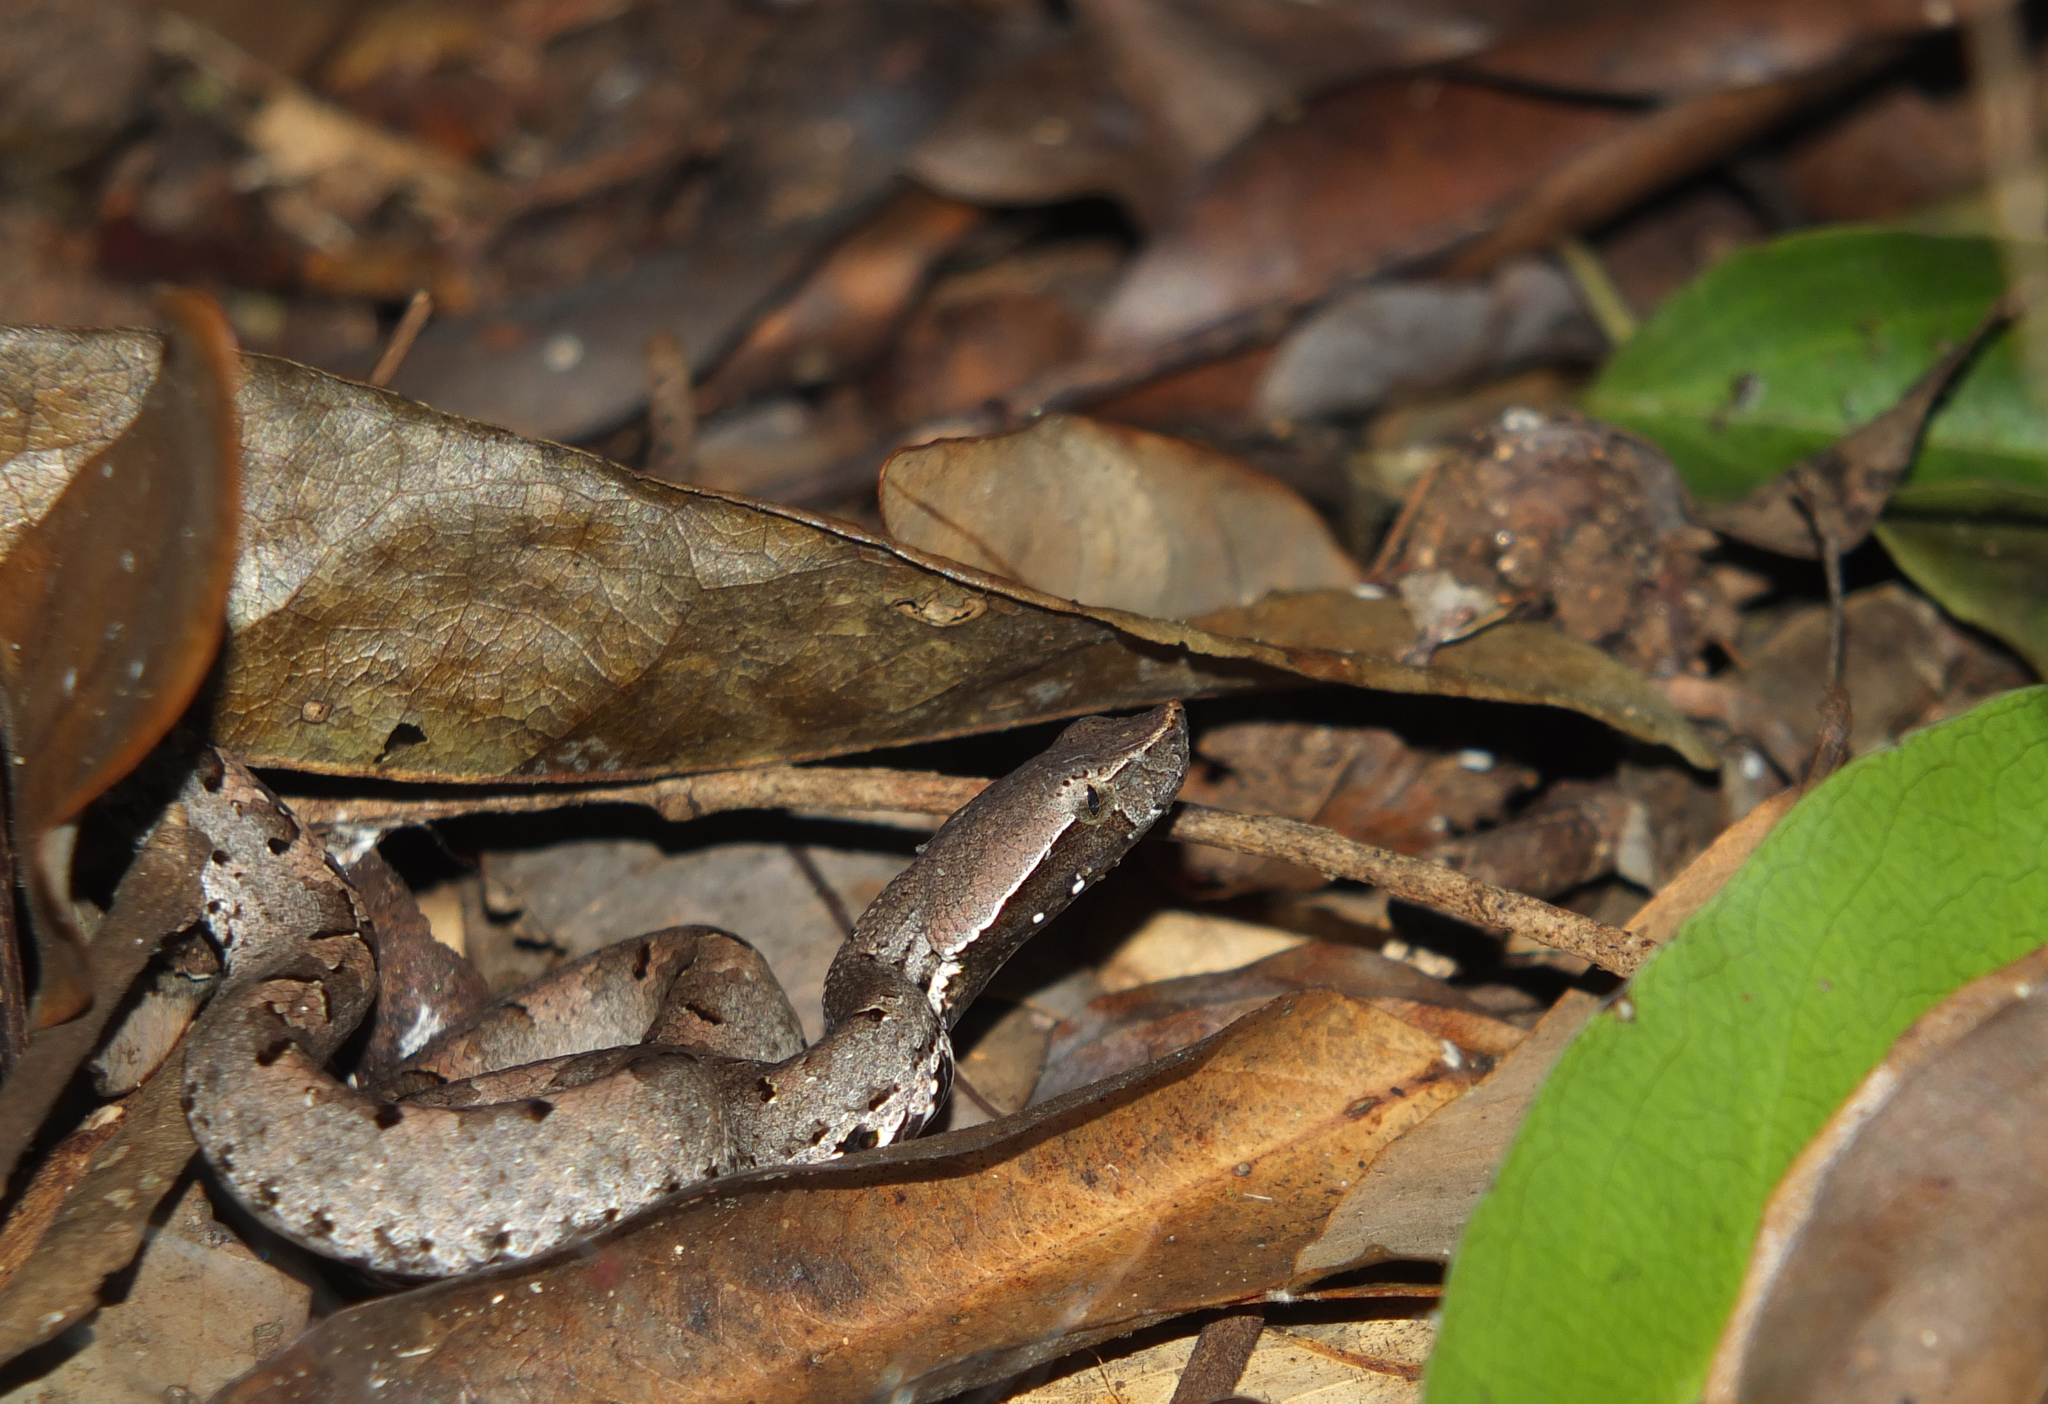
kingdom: Animalia
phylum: Chordata
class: Squamata
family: Viperidae
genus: Hypnale
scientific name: Hypnale hypnale
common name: Hump-nosed moccasin
